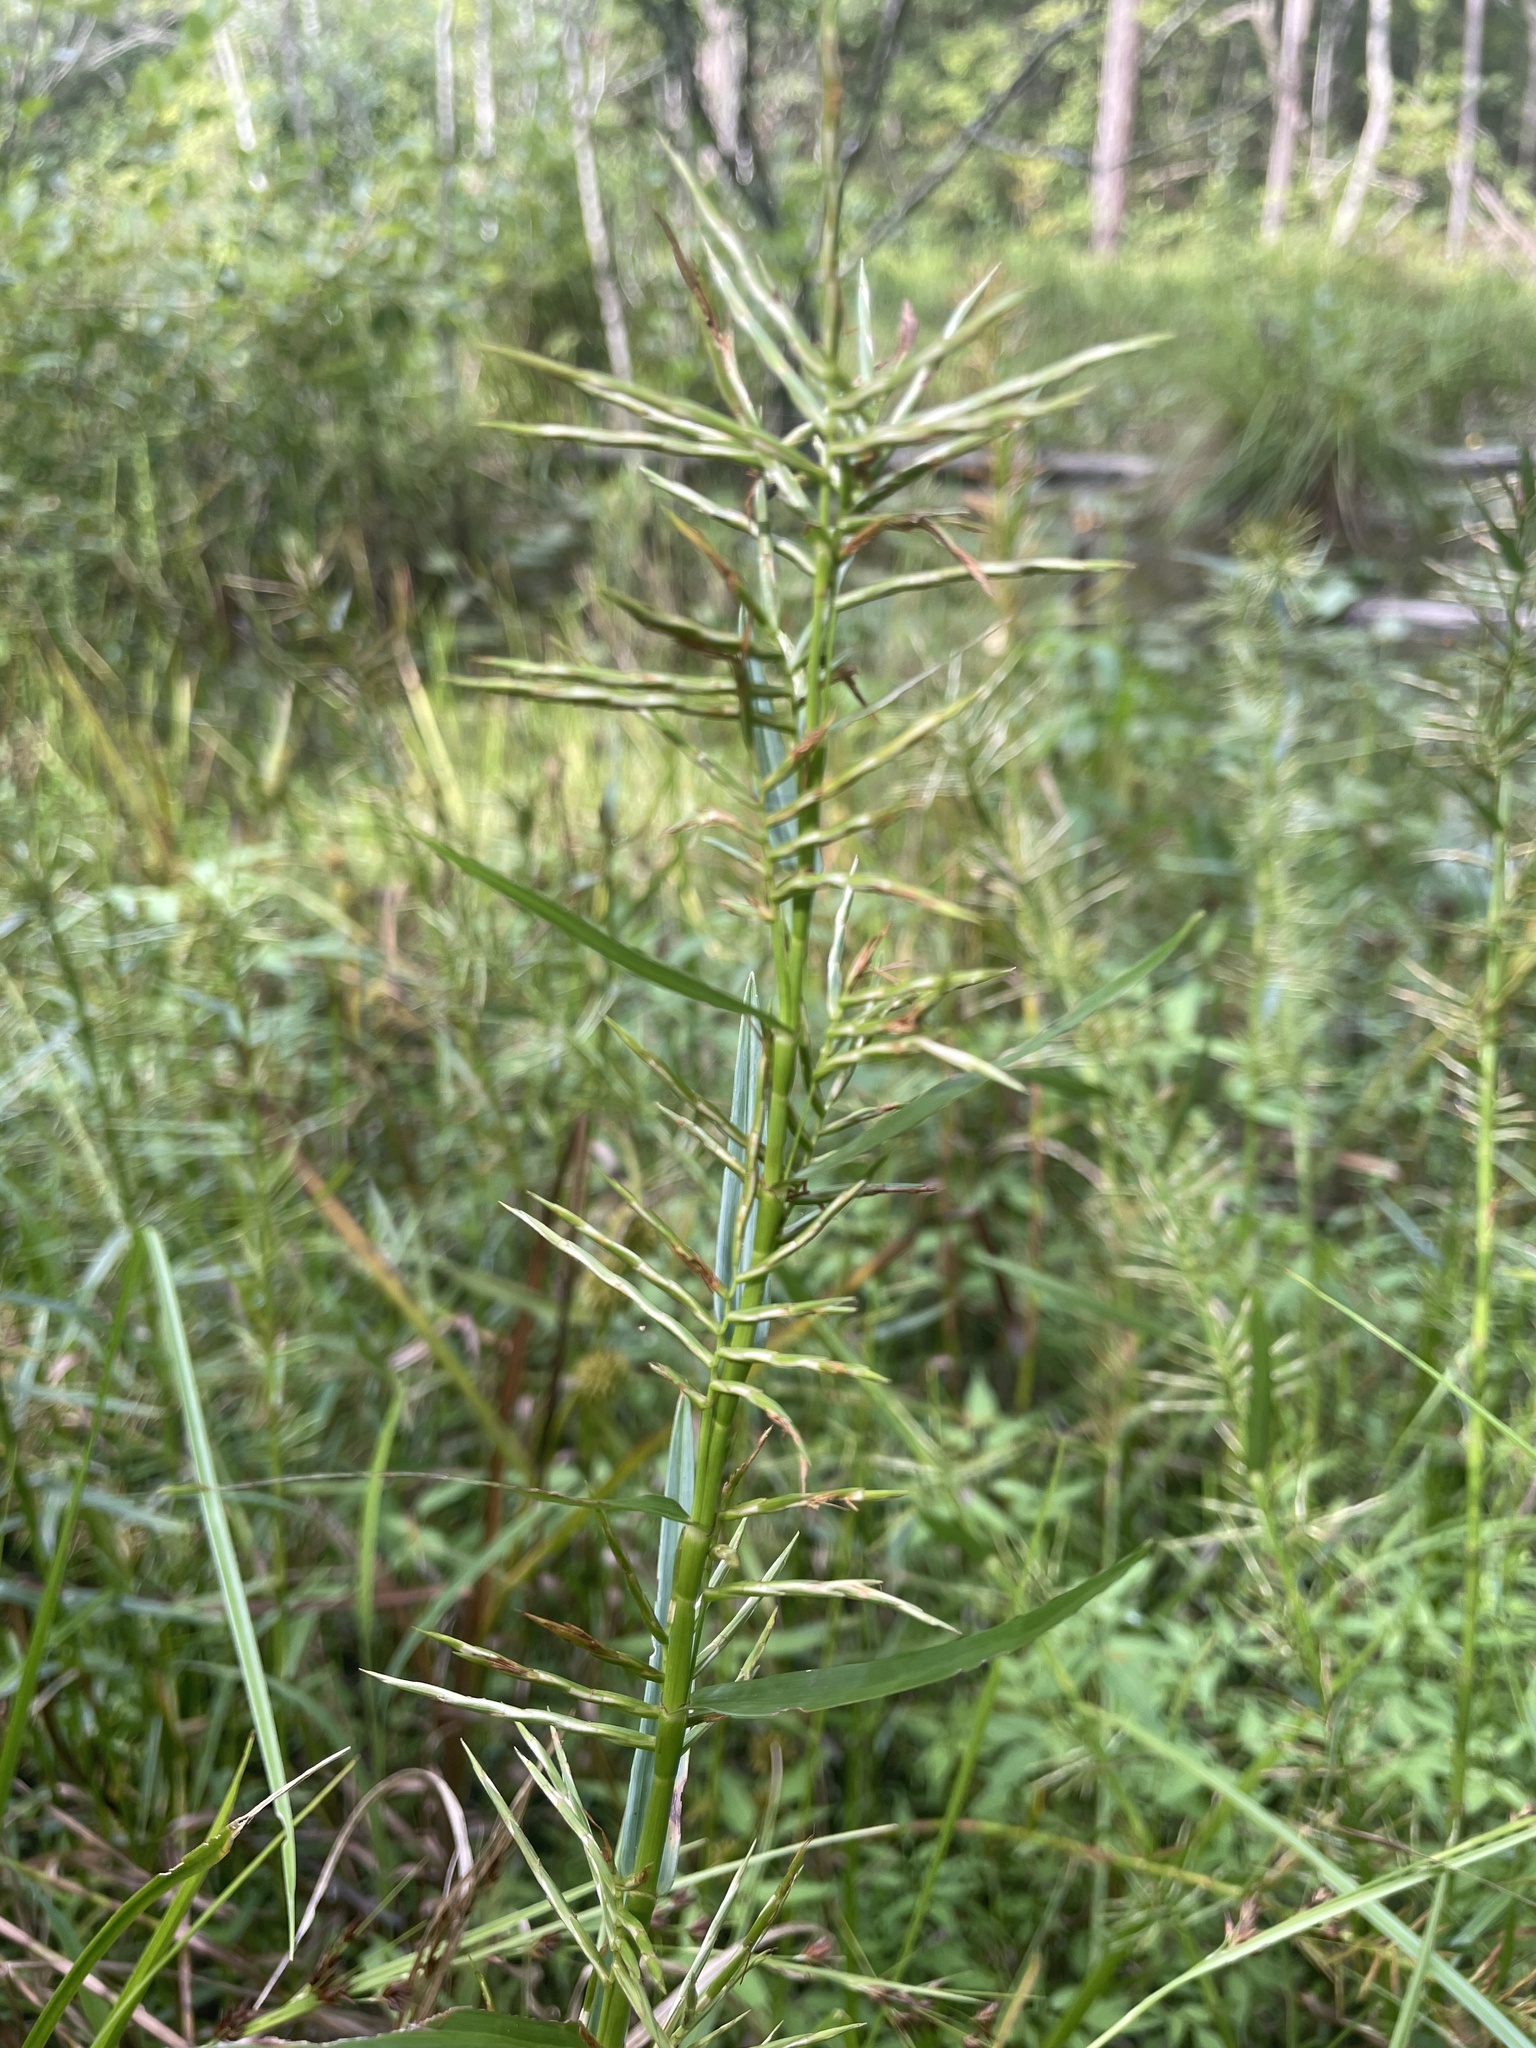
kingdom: Plantae
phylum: Tracheophyta
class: Liliopsida
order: Poales
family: Cyperaceae
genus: Dulichium
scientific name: Dulichium arundinaceum
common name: Three-way sedge
